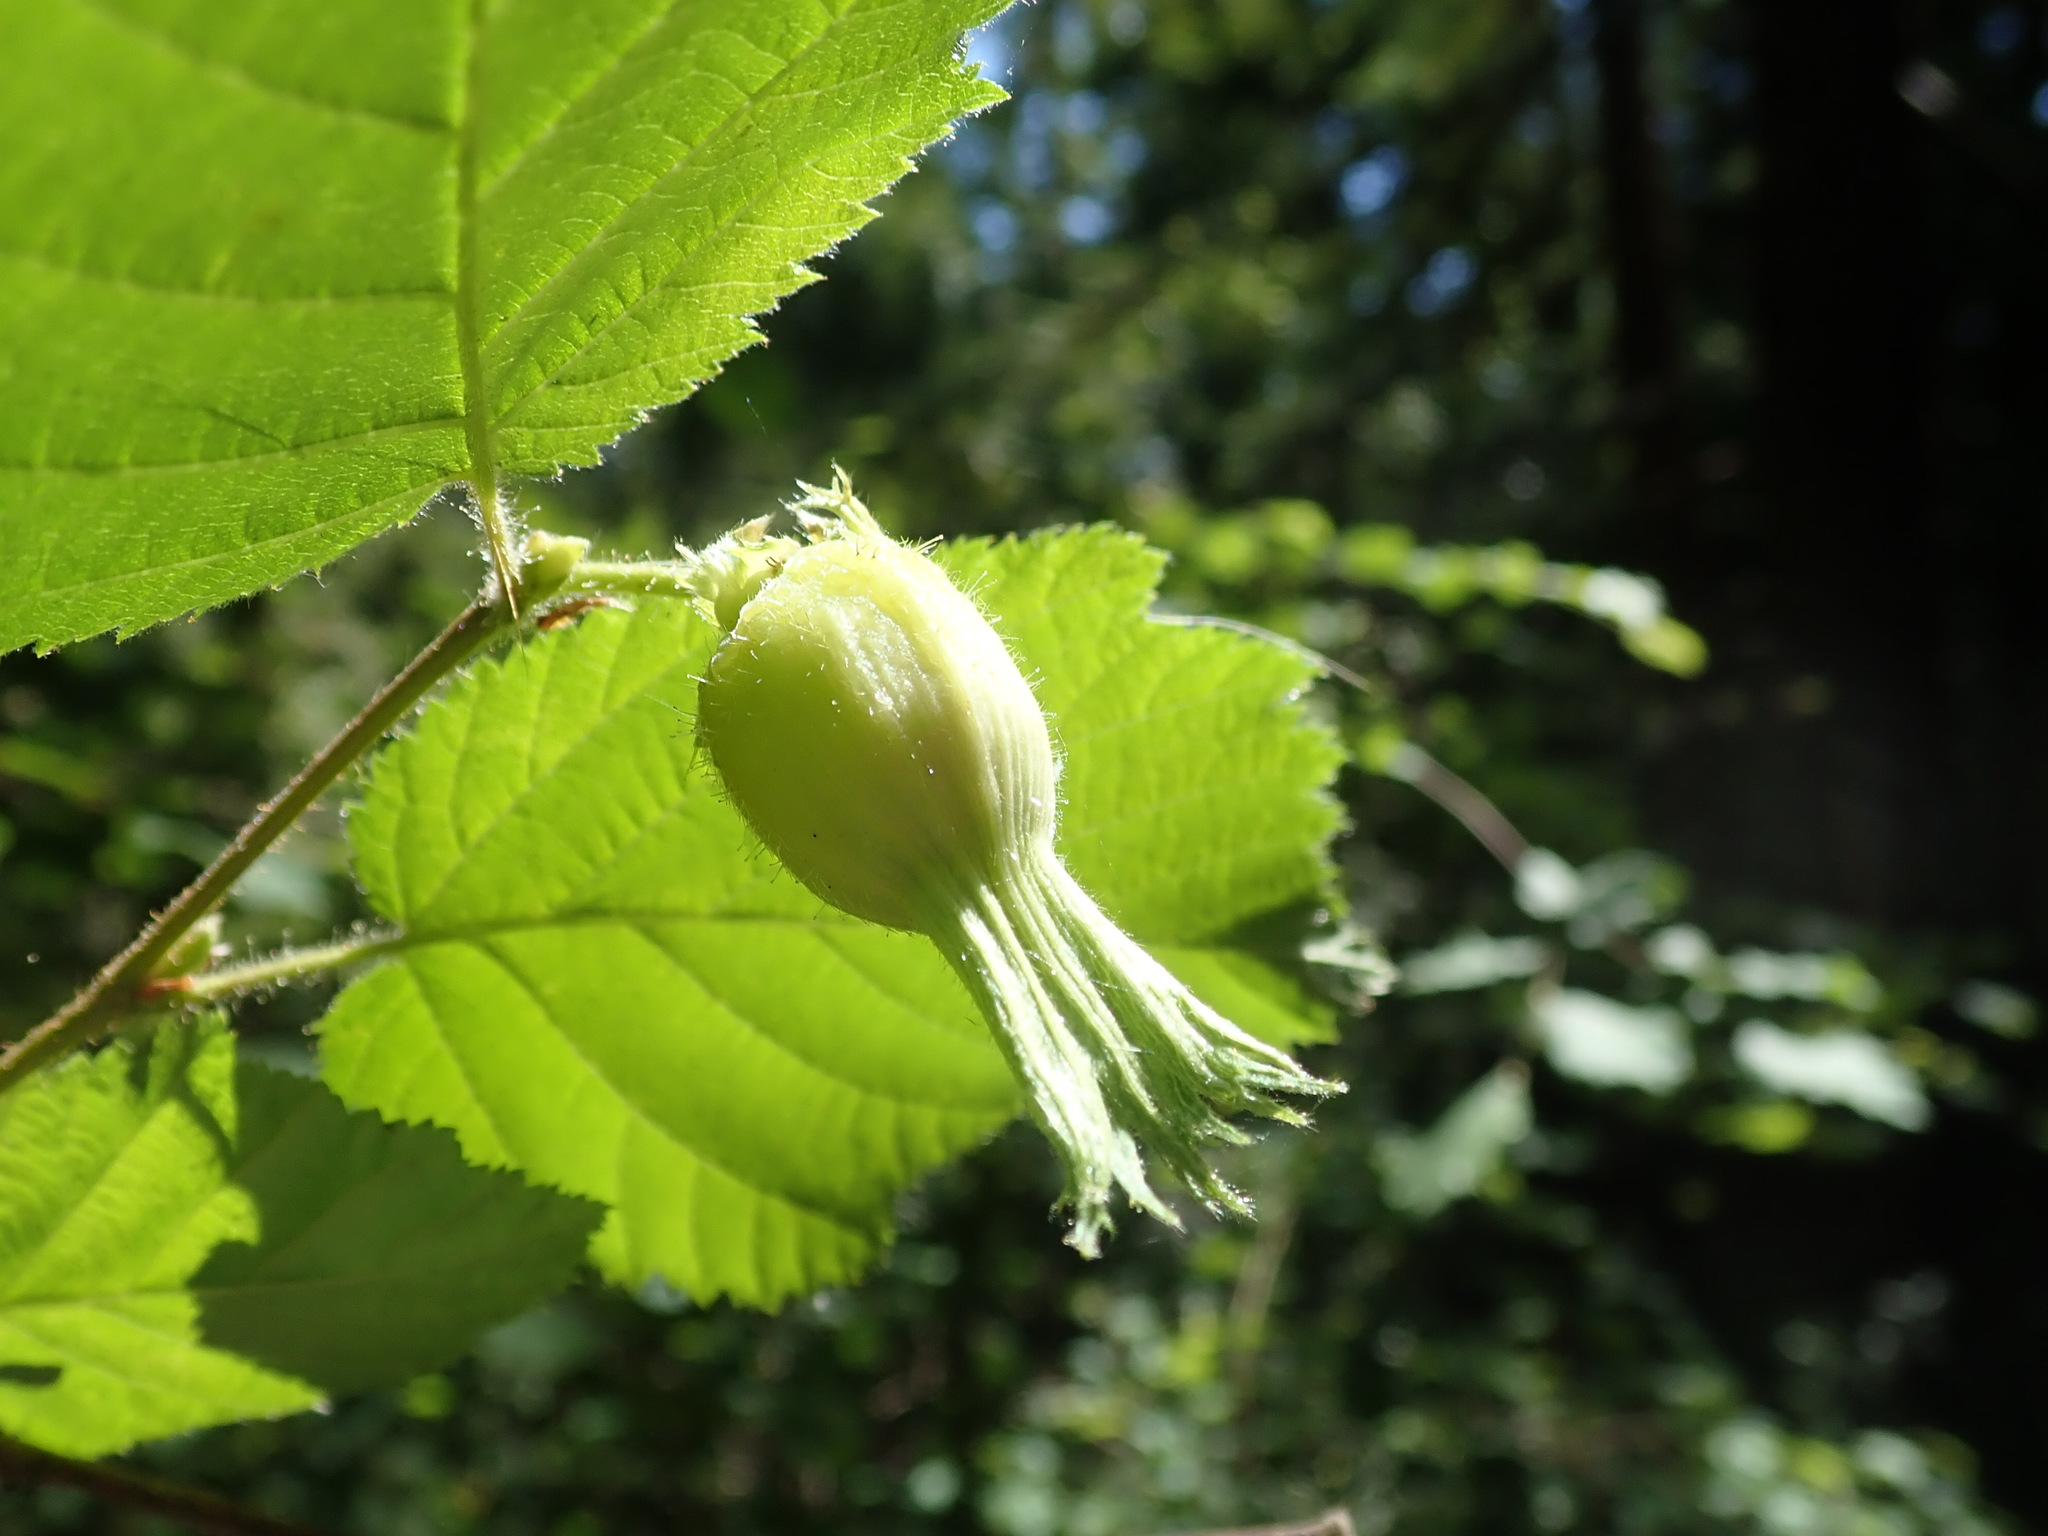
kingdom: Plantae
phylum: Tracheophyta
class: Magnoliopsida
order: Fagales
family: Betulaceae
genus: Corylus
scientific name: Corylus cornuta
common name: Beaked hazel
